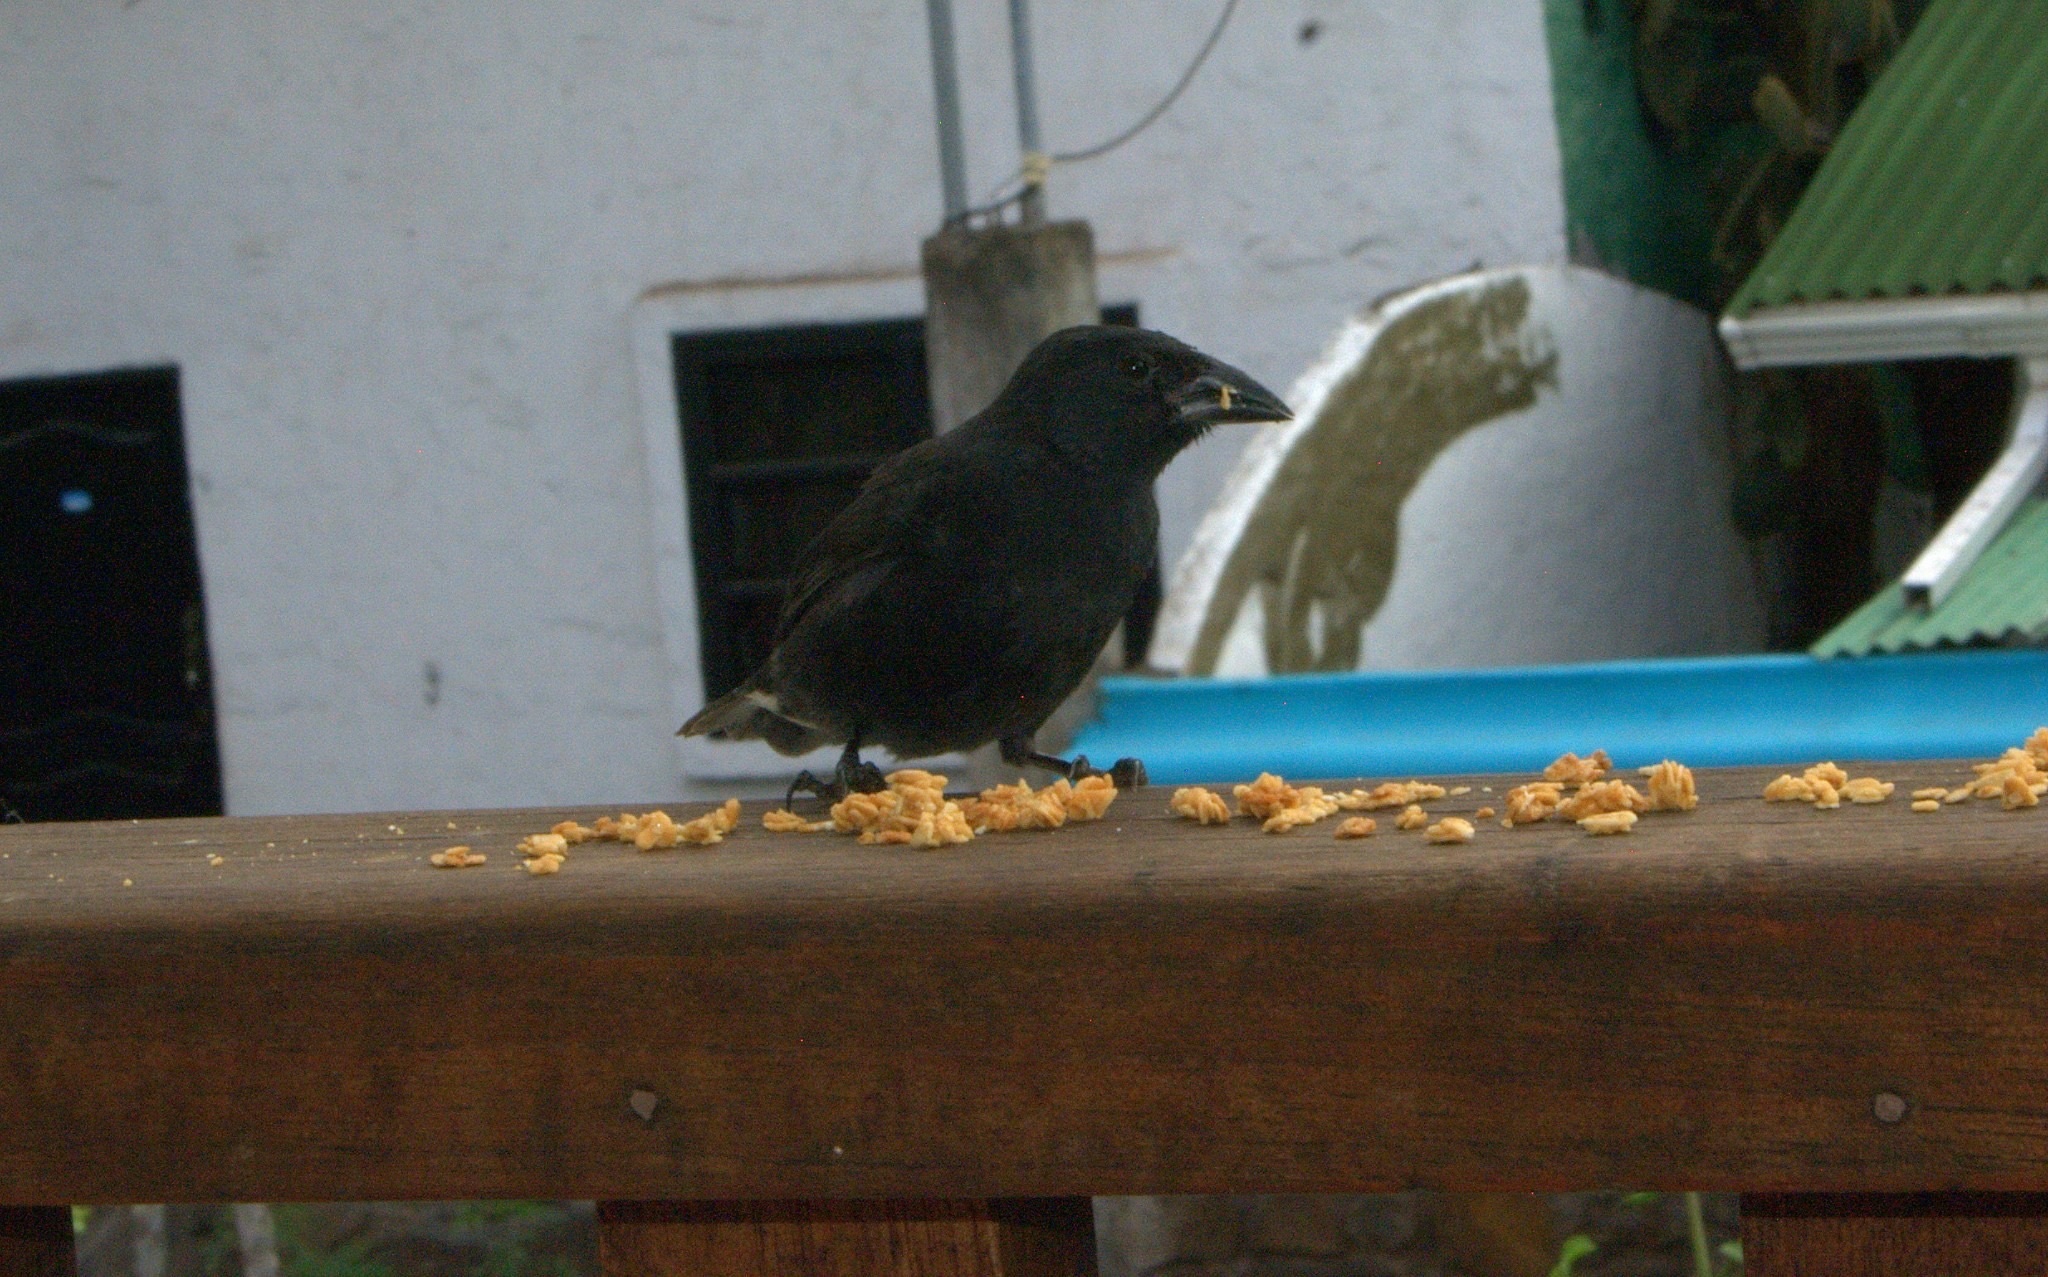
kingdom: Animalia
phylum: Chordata
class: Aves
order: Passeriformes
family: Thraupidae
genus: Geospiza
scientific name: Geospiza scandens
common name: Common cactus-finch
